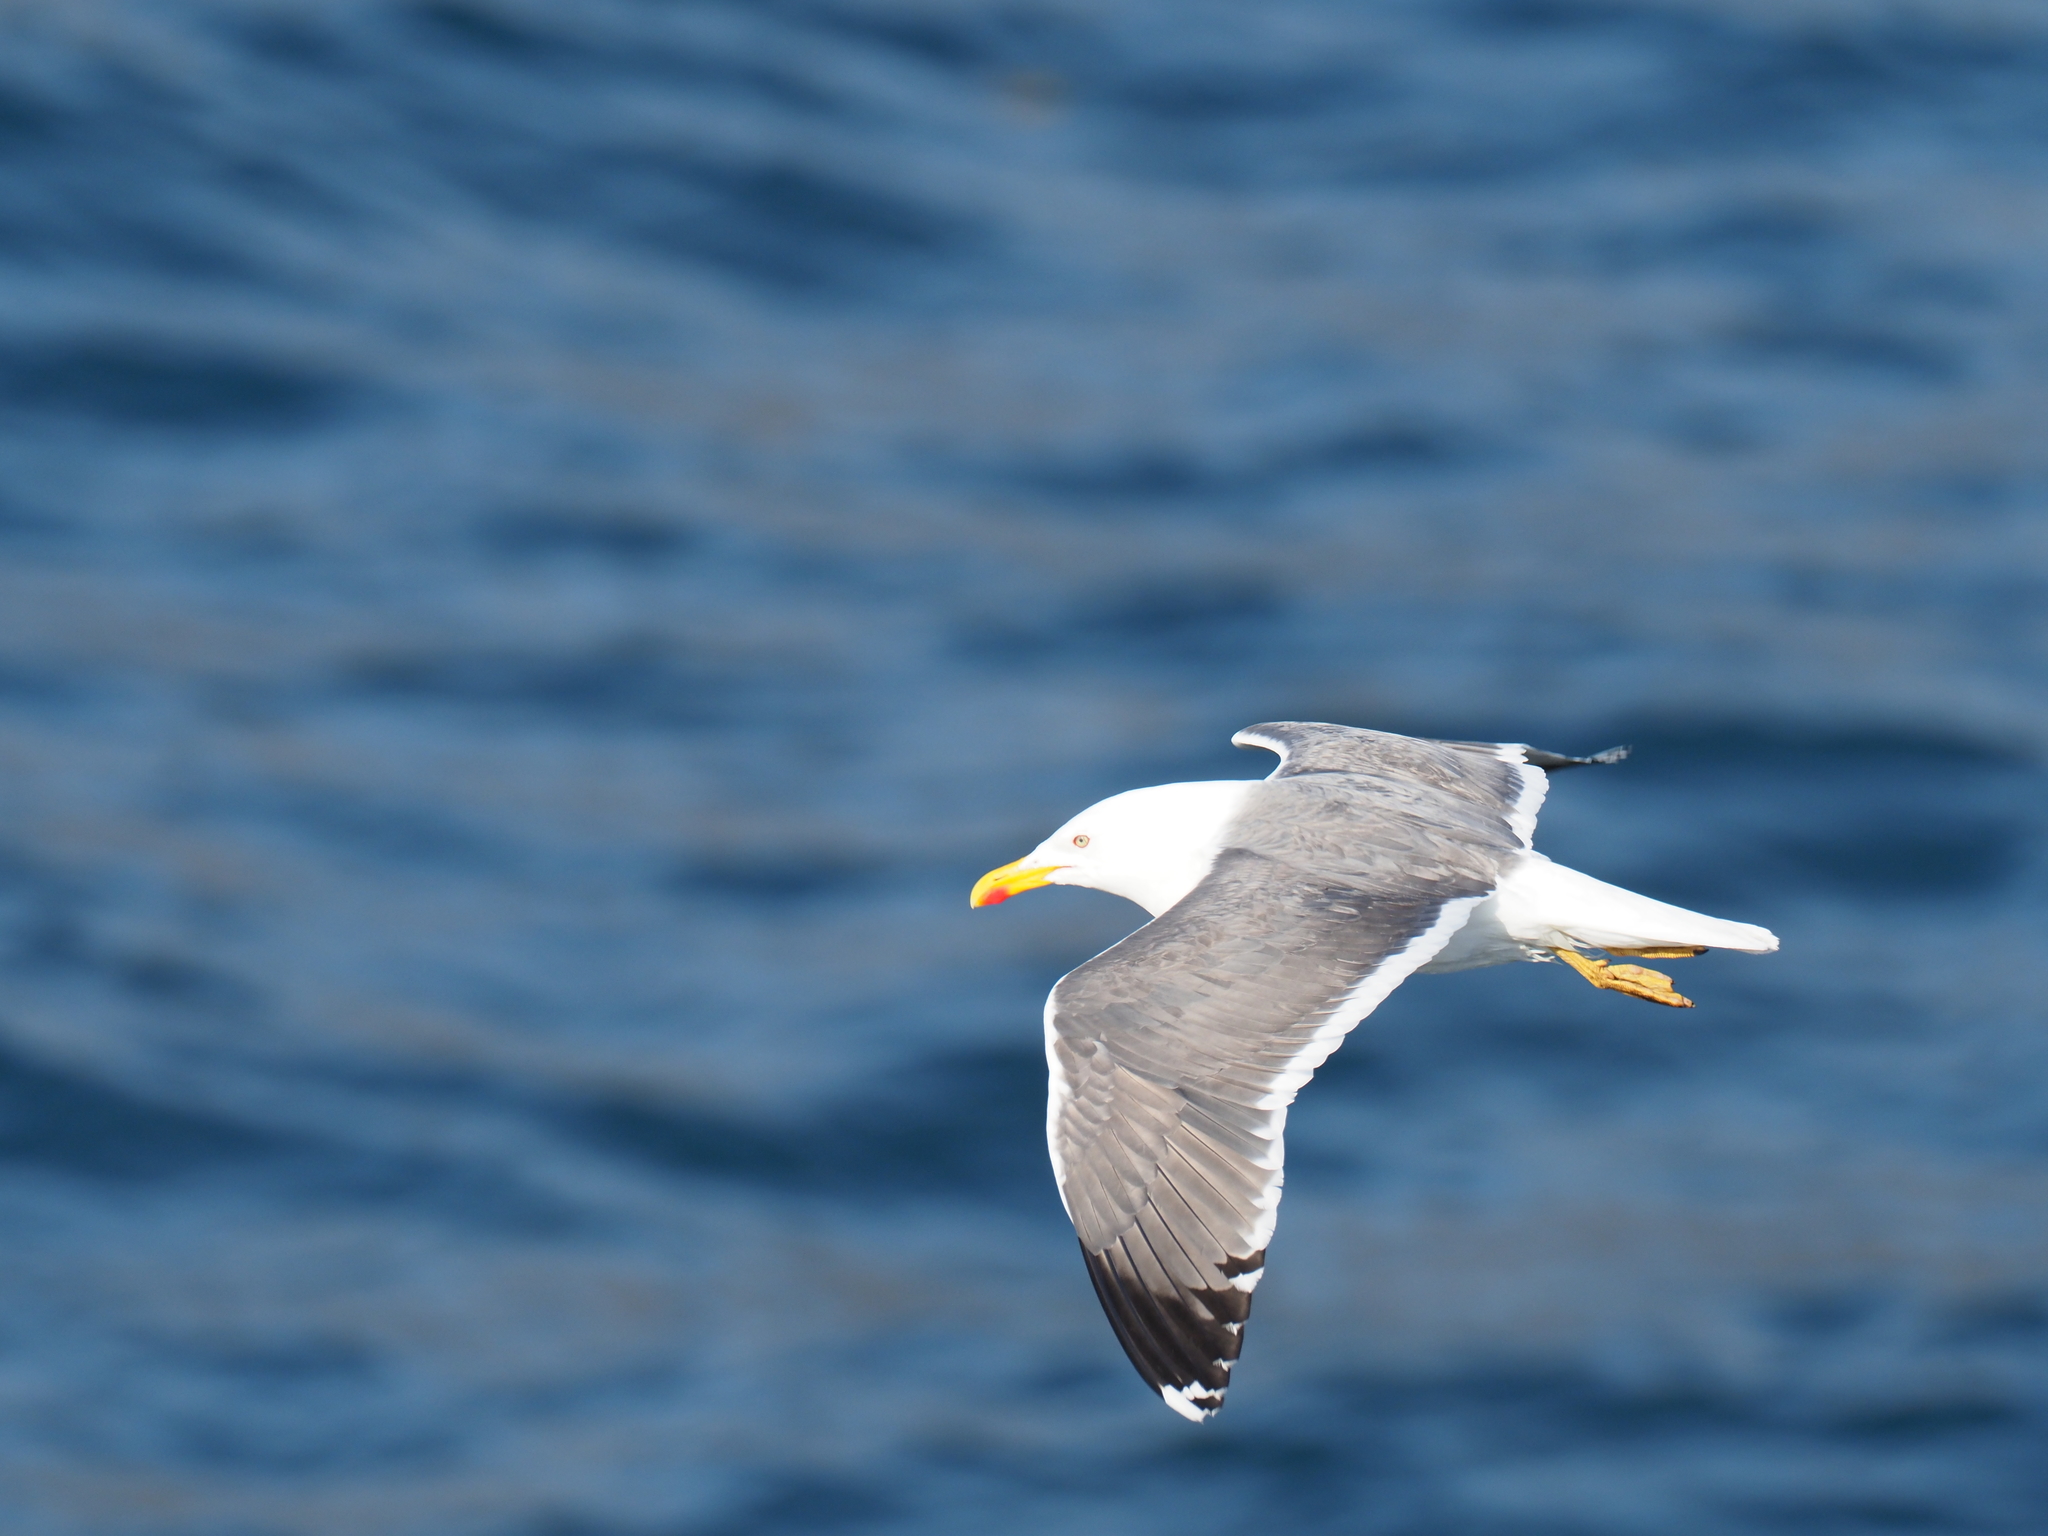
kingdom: Animalia
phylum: Chordata
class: Aves
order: Charadriiformes
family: Laridae
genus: Larus
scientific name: Larus fuscus
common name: Lesser black-backed gull
